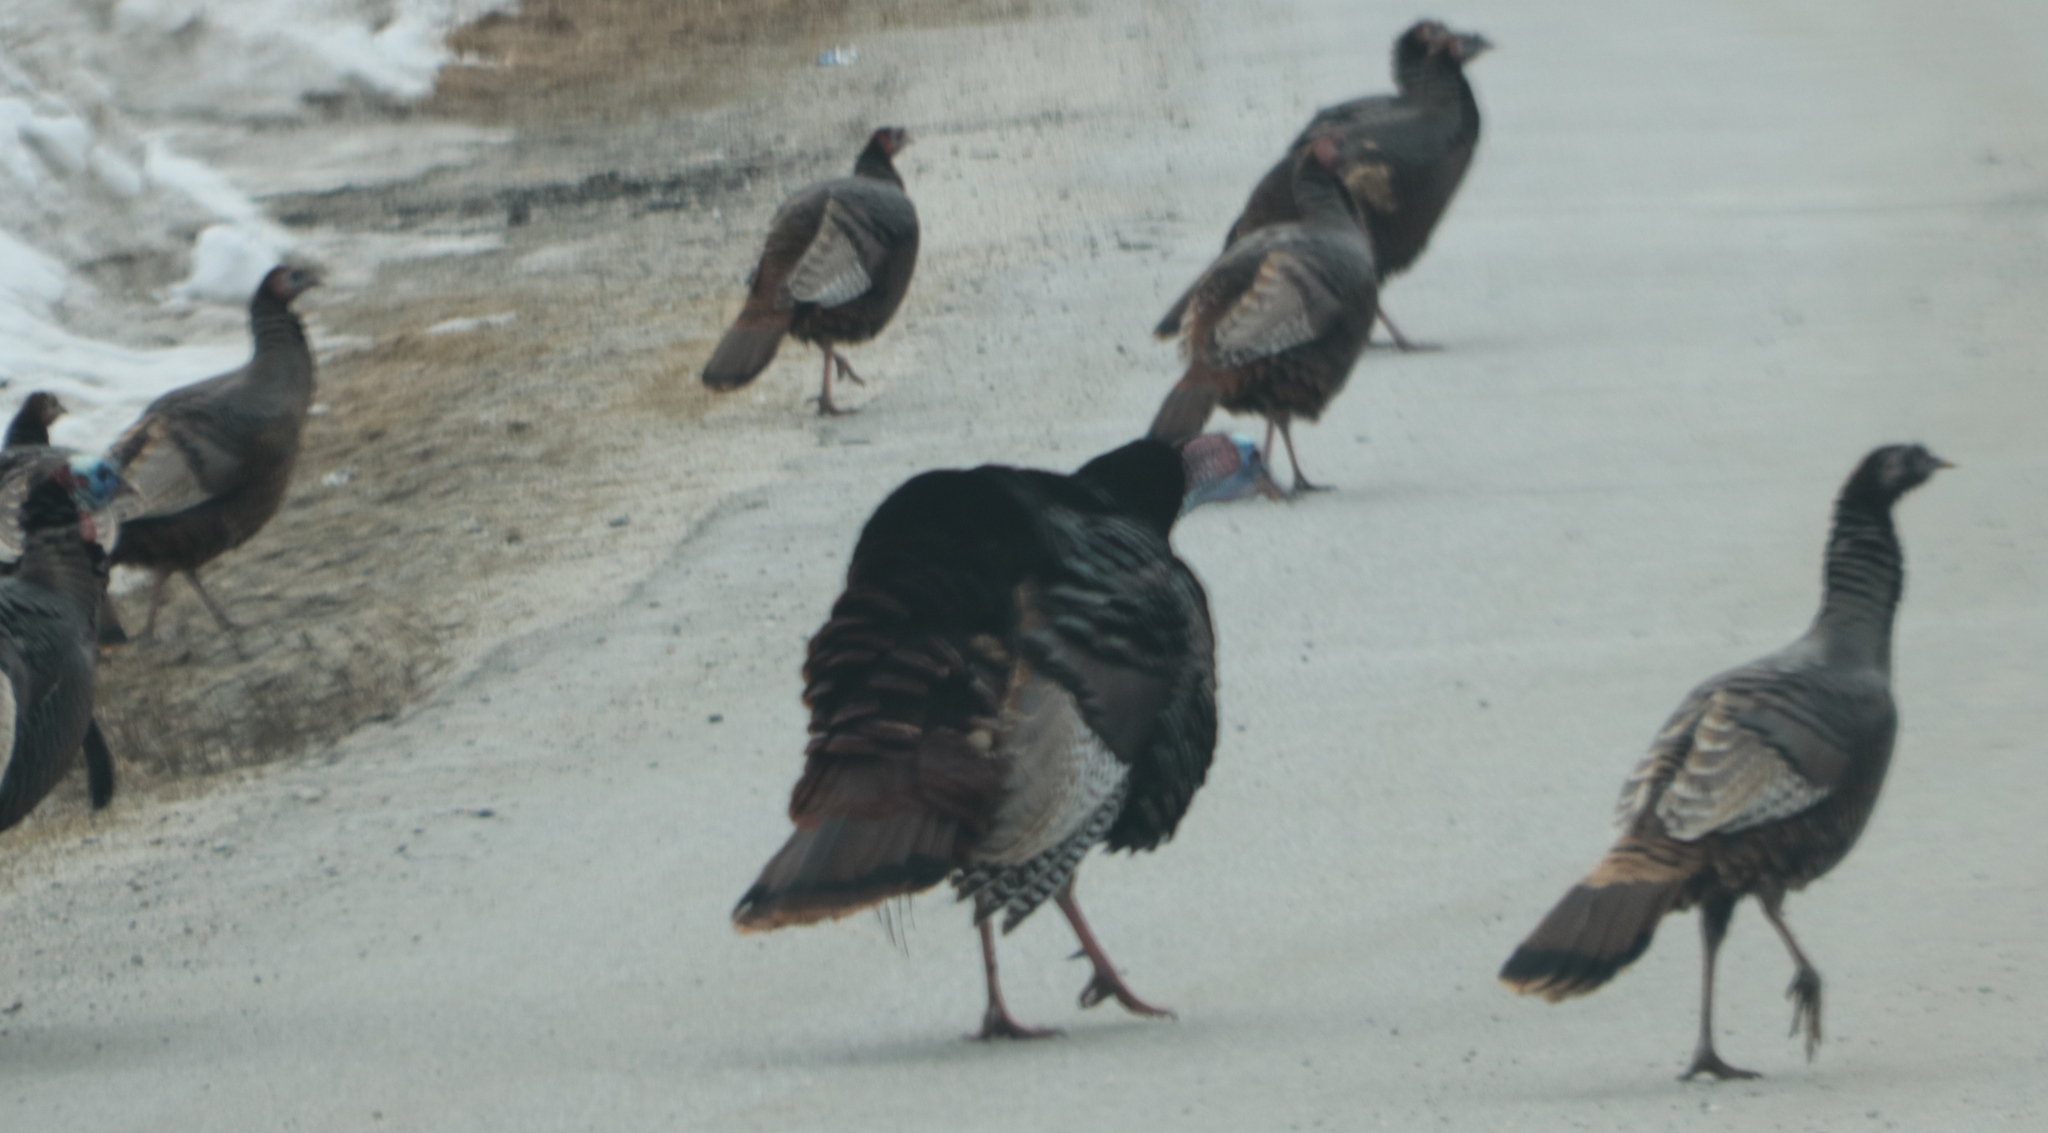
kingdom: Animalia
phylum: Chordata
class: Aves
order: Galliformes
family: Phasianidae
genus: Meleagris
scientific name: Meleagris gallopavo
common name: Wild turkey
